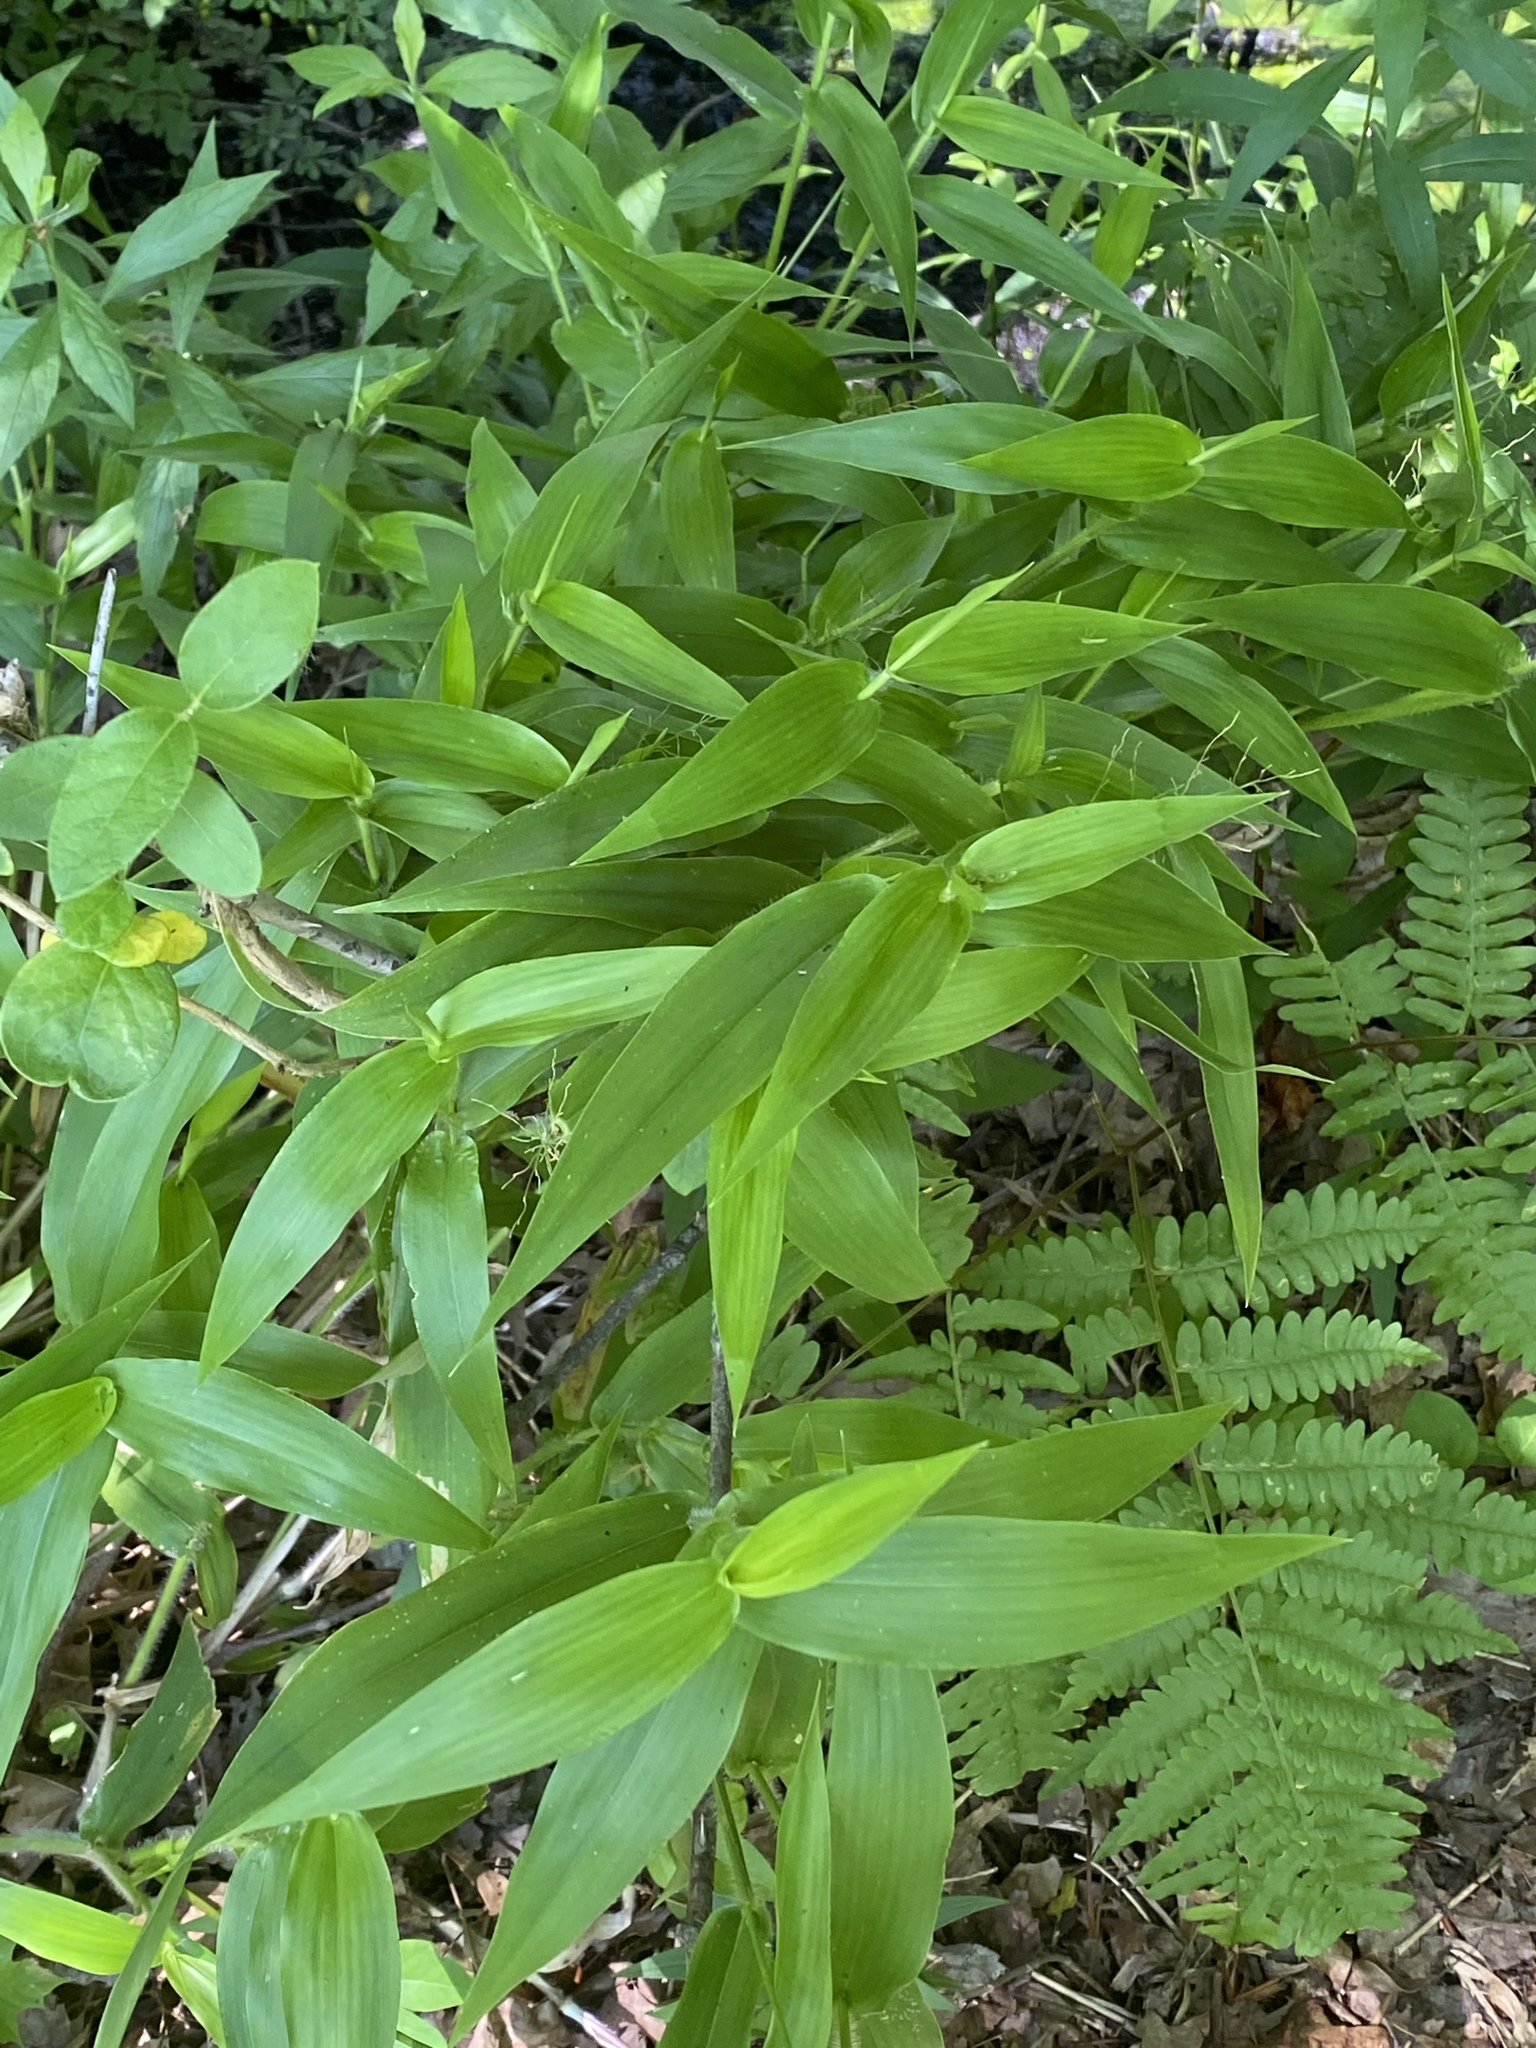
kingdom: Plantae
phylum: Tracheophyta
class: Liliopsida
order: Poales
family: Poaceae
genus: Dichanthelium
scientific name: Dichanthelium clandestinum
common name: Deer-tongue grass
